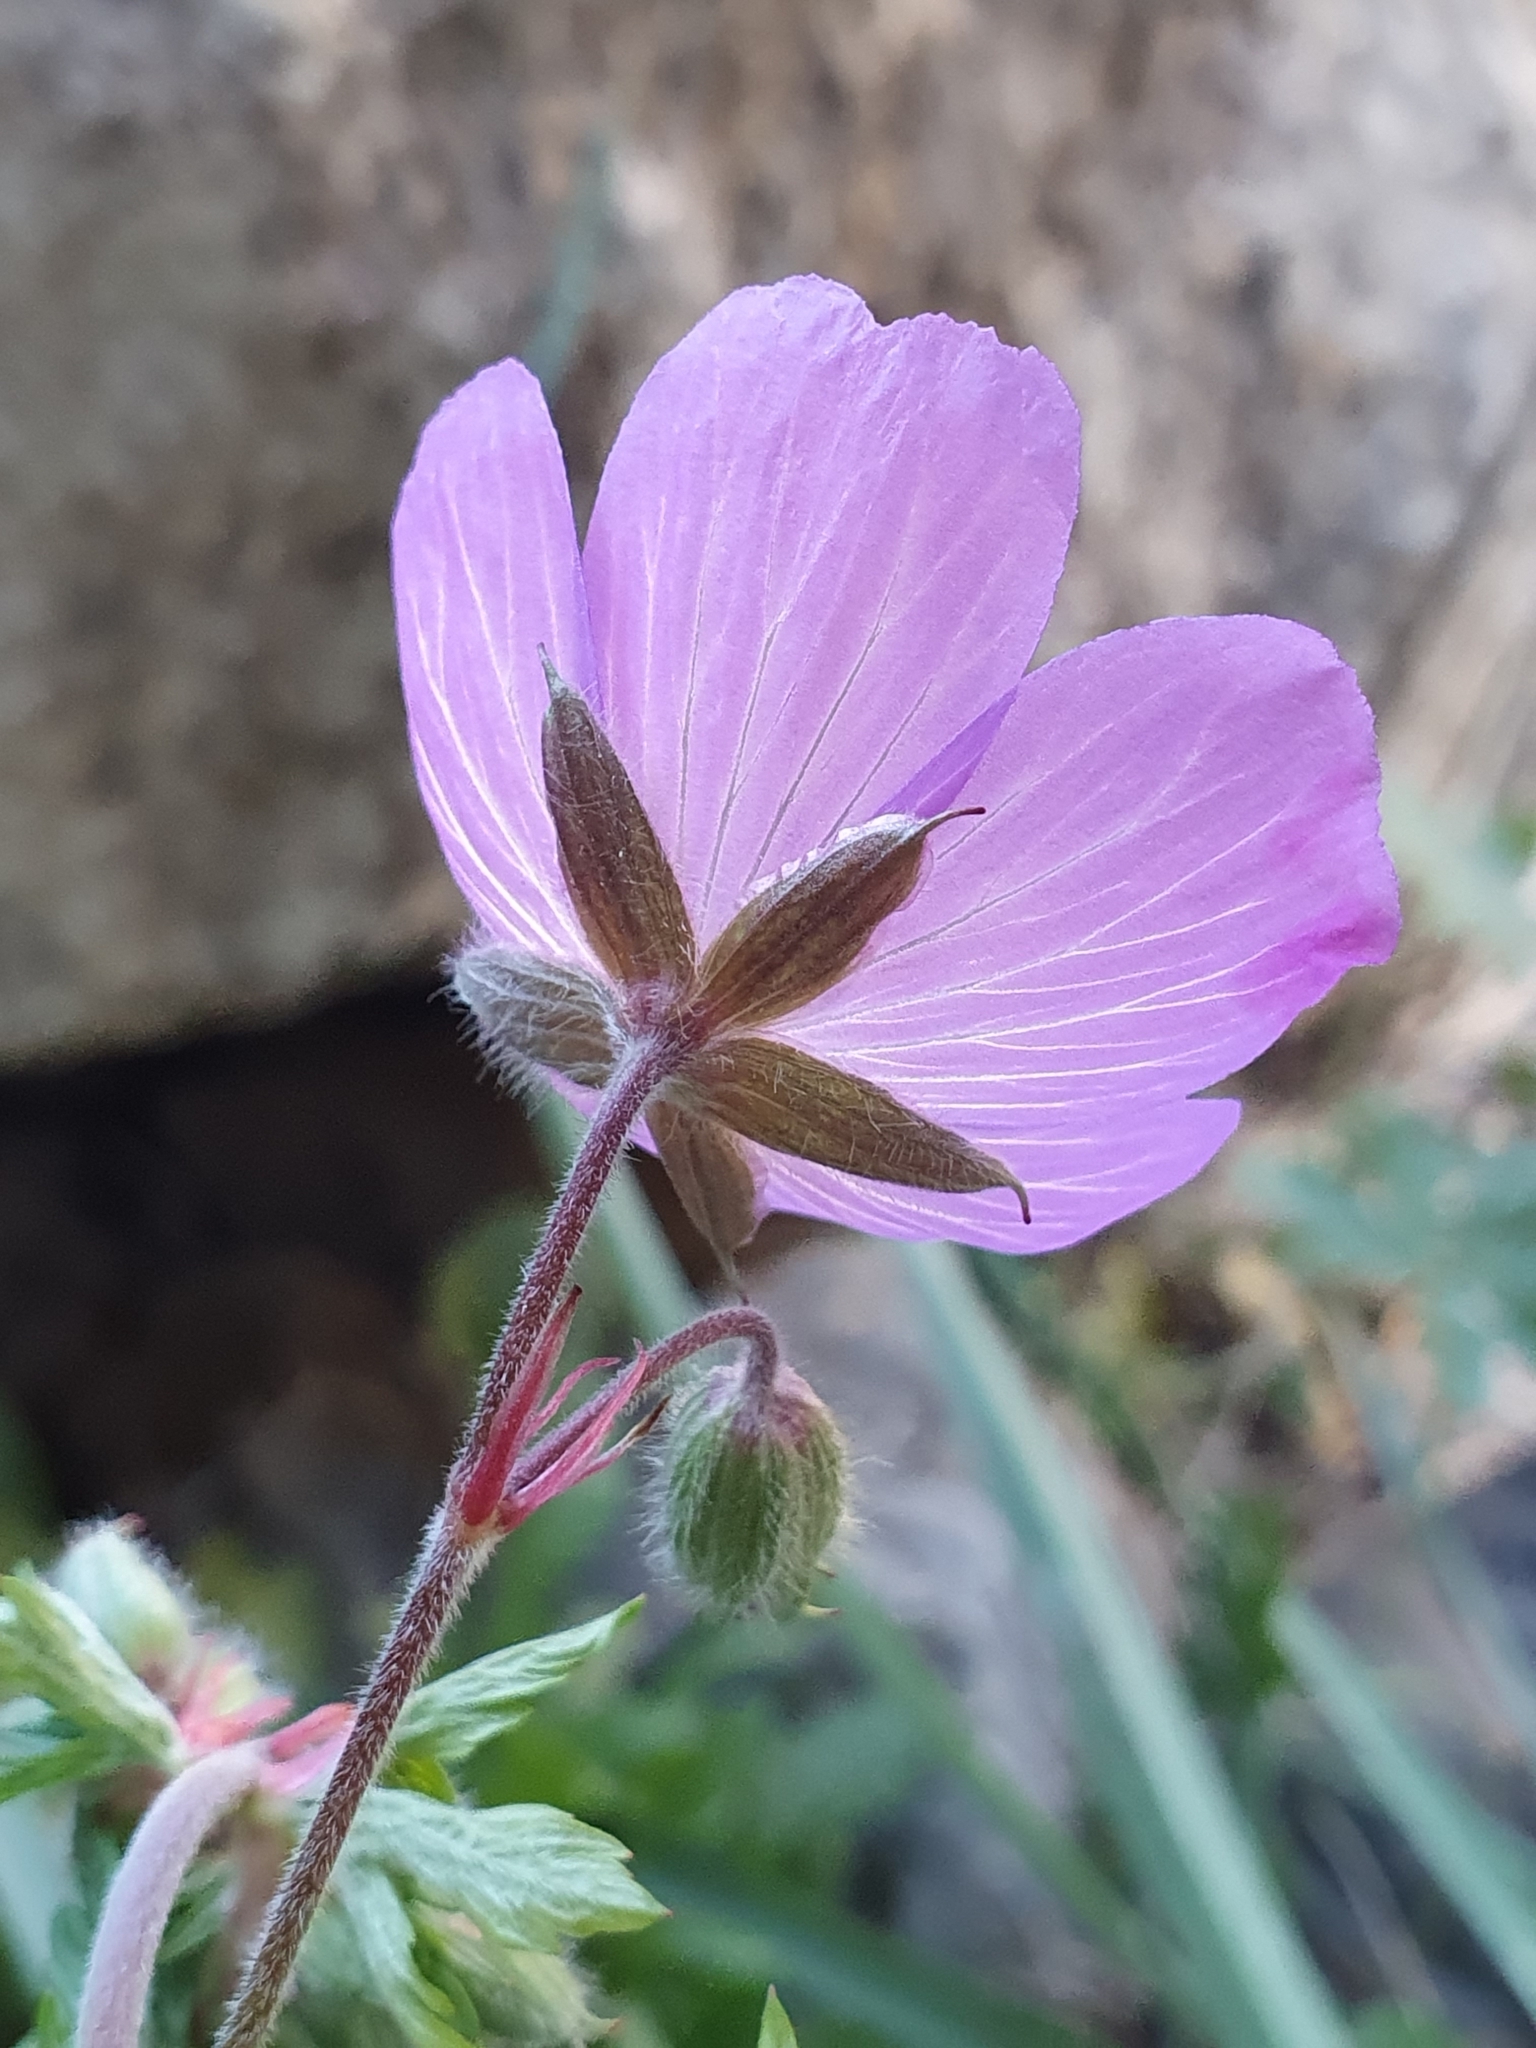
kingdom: Plantae
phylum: Tracheophyta
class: Magnoliopsida
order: Geraniales
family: Geraniaceae
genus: Geranium
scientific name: Geranium atlanticum
